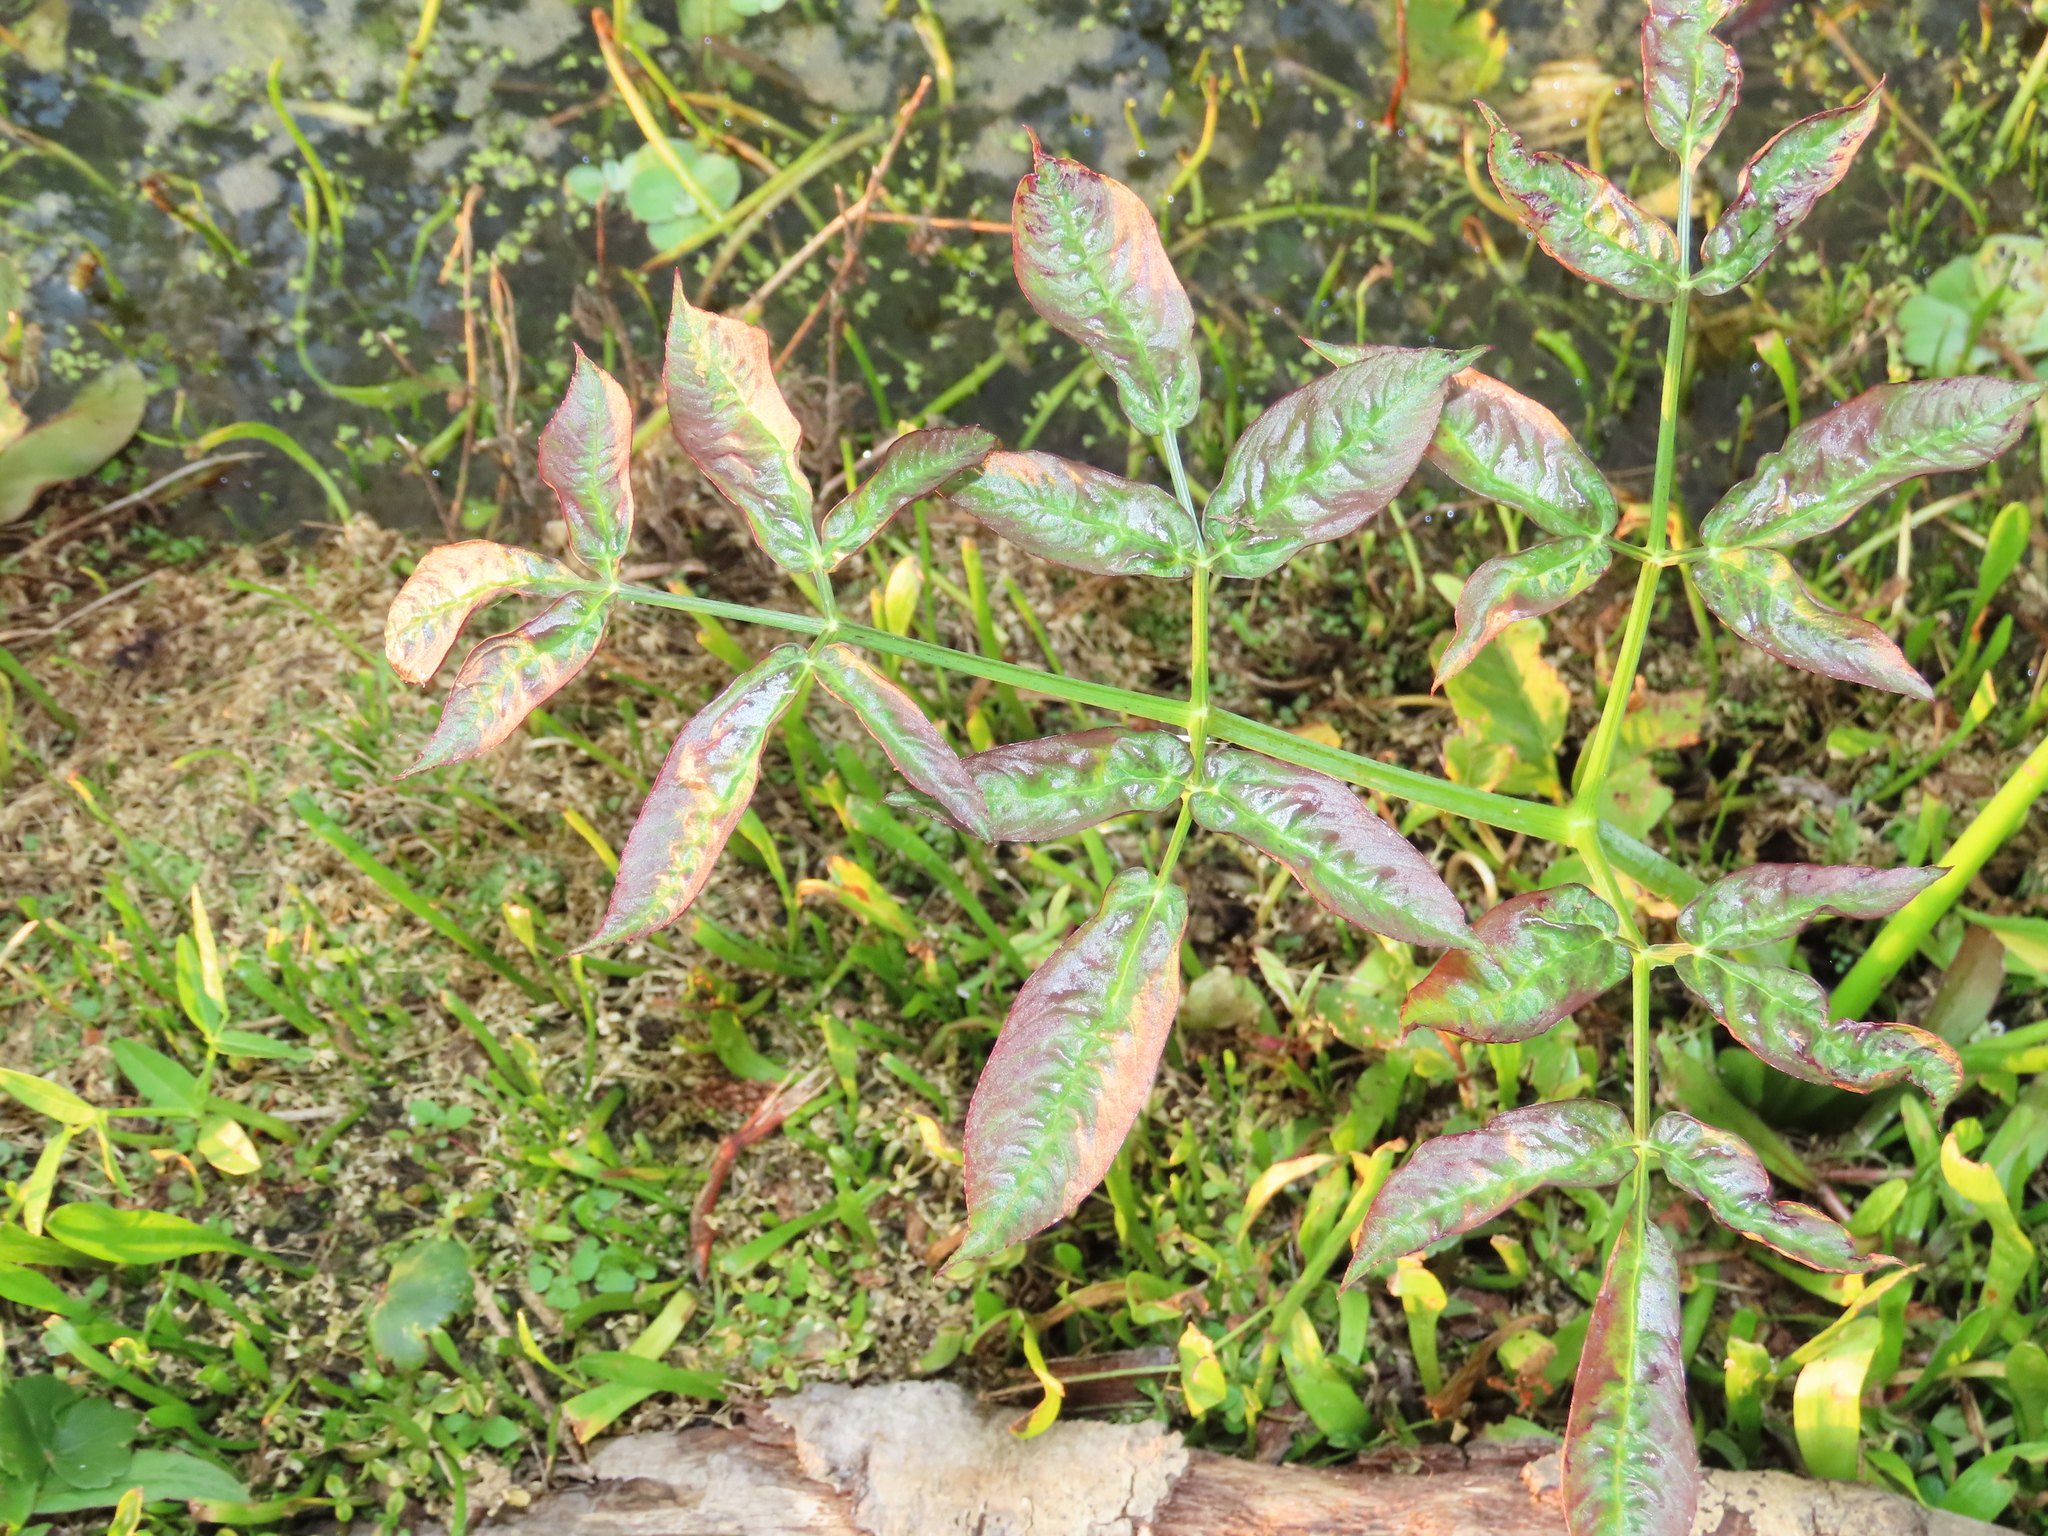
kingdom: Plantae
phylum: Tracheophyta
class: Magnoliopsida
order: Apiales
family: Apiaceae
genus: Cicuta
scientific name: Cicuta maculata
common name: Spotted cowbane
